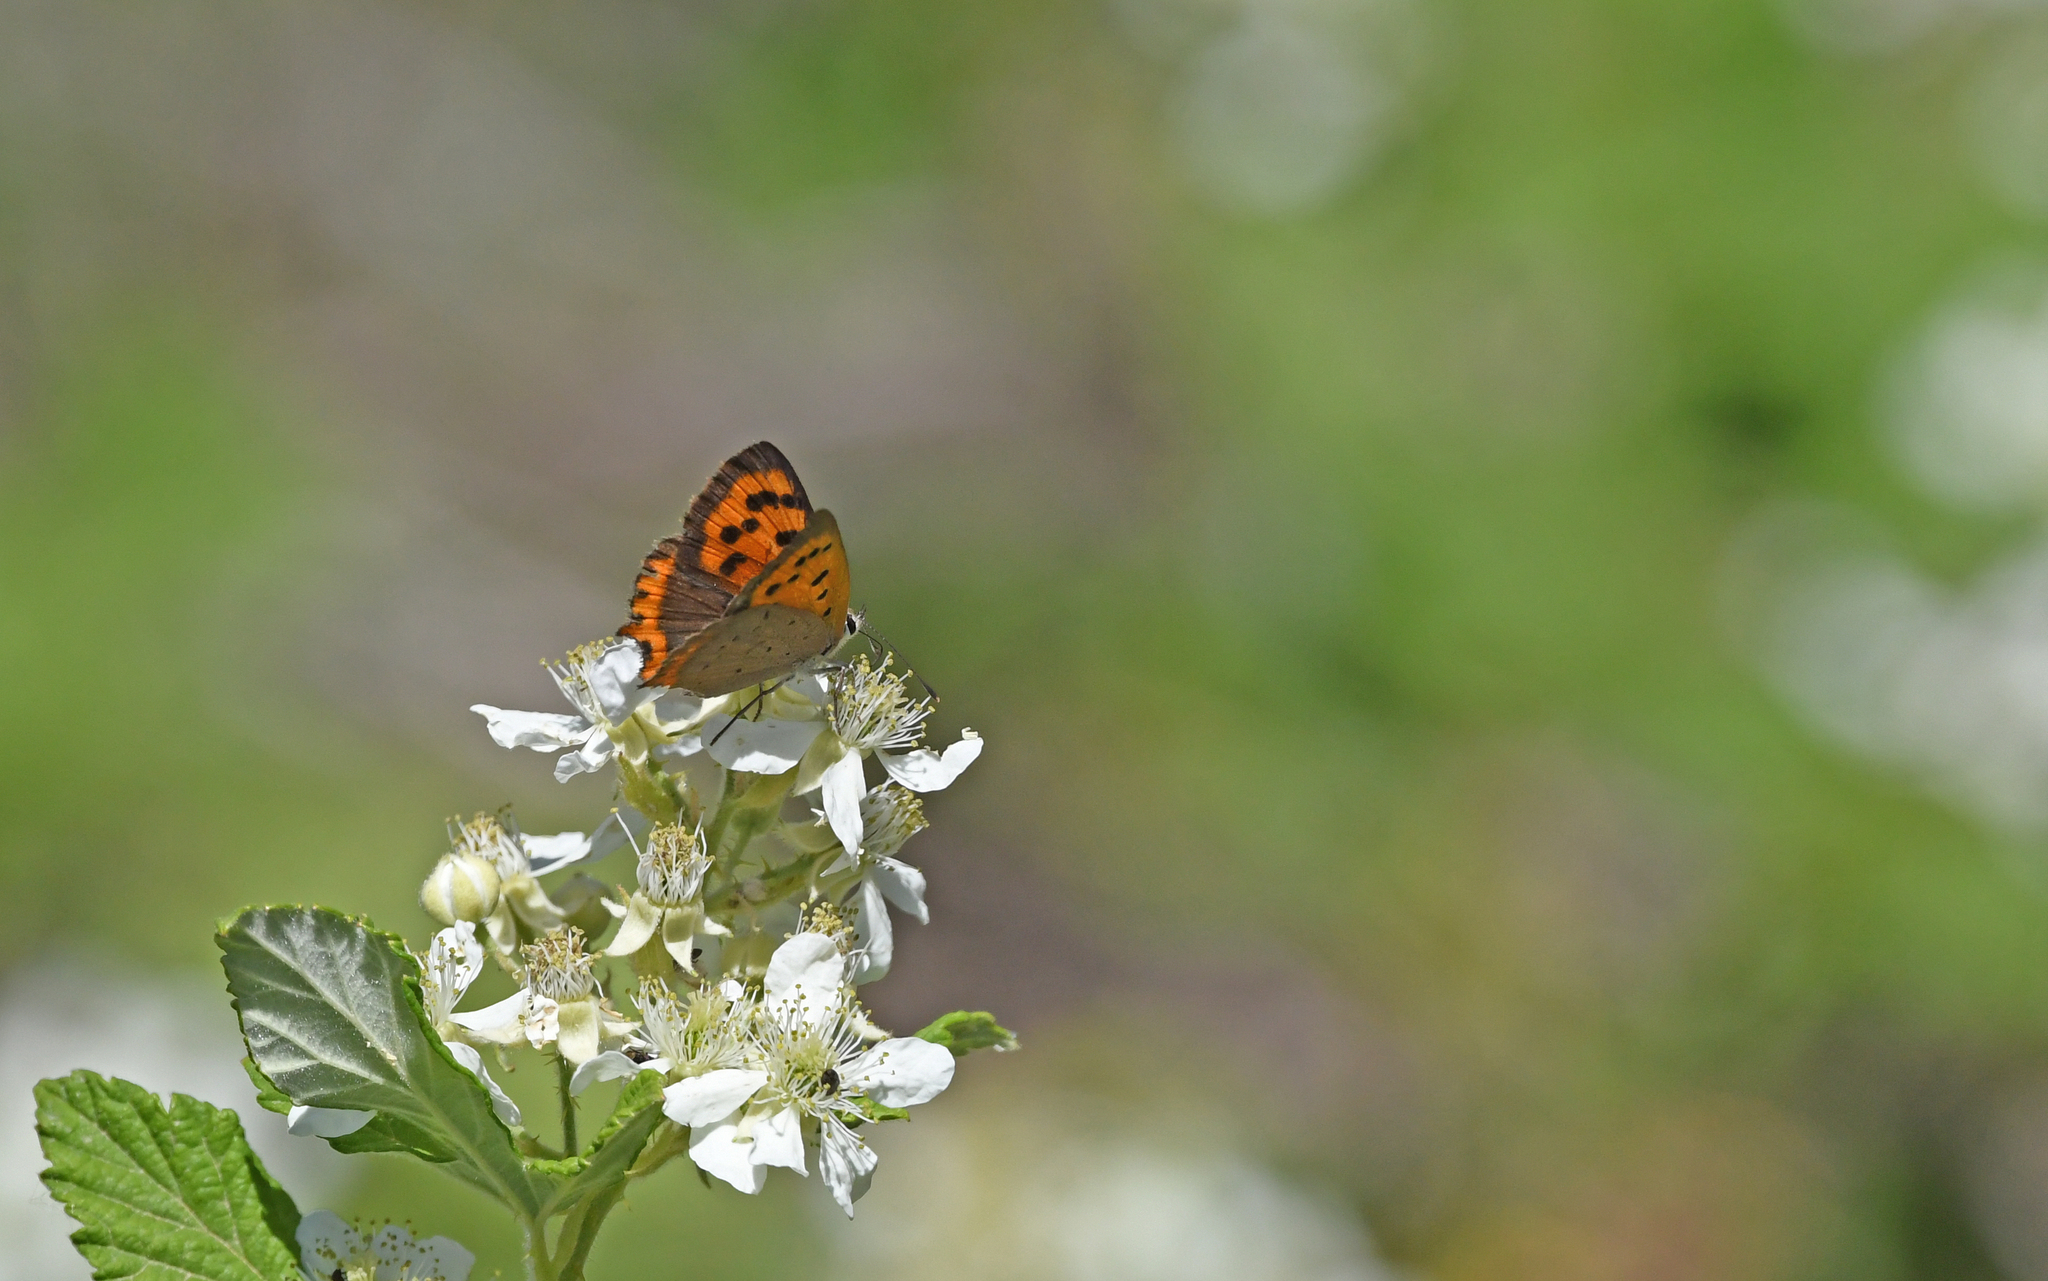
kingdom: Animalia
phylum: Arthropoda
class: Insecta
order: Lepidoptera
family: Lycaenidae
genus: Lycaena
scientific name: Lycaena phlaeas
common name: Small copper
